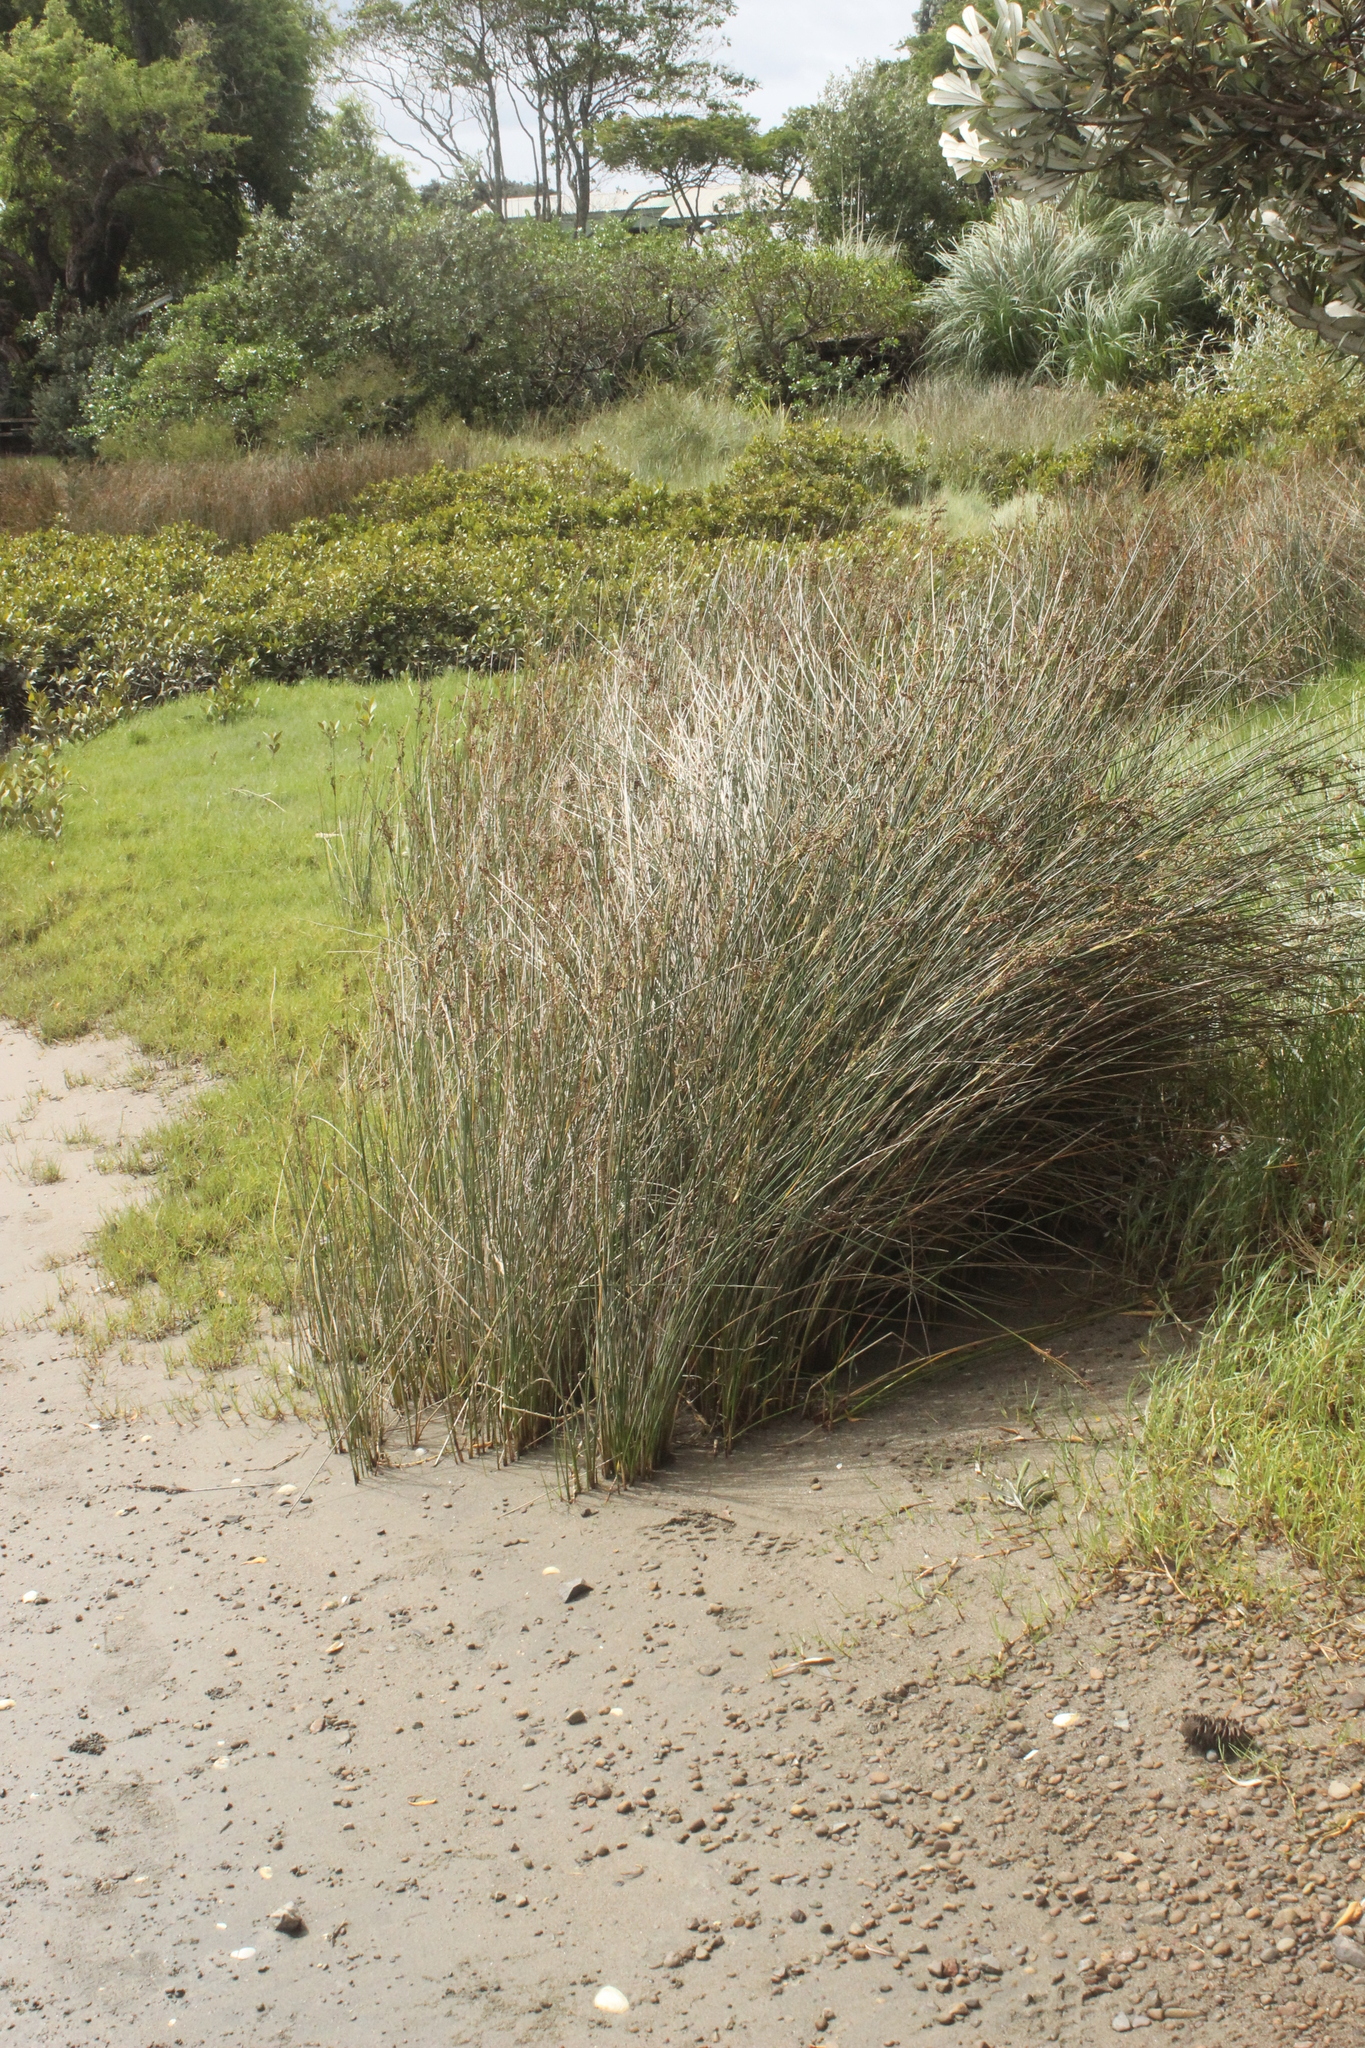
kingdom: Plantae
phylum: Tracheophyta
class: Liliopsida
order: Poales
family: Juncaceae
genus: Juncus
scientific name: Juncus kraussii
